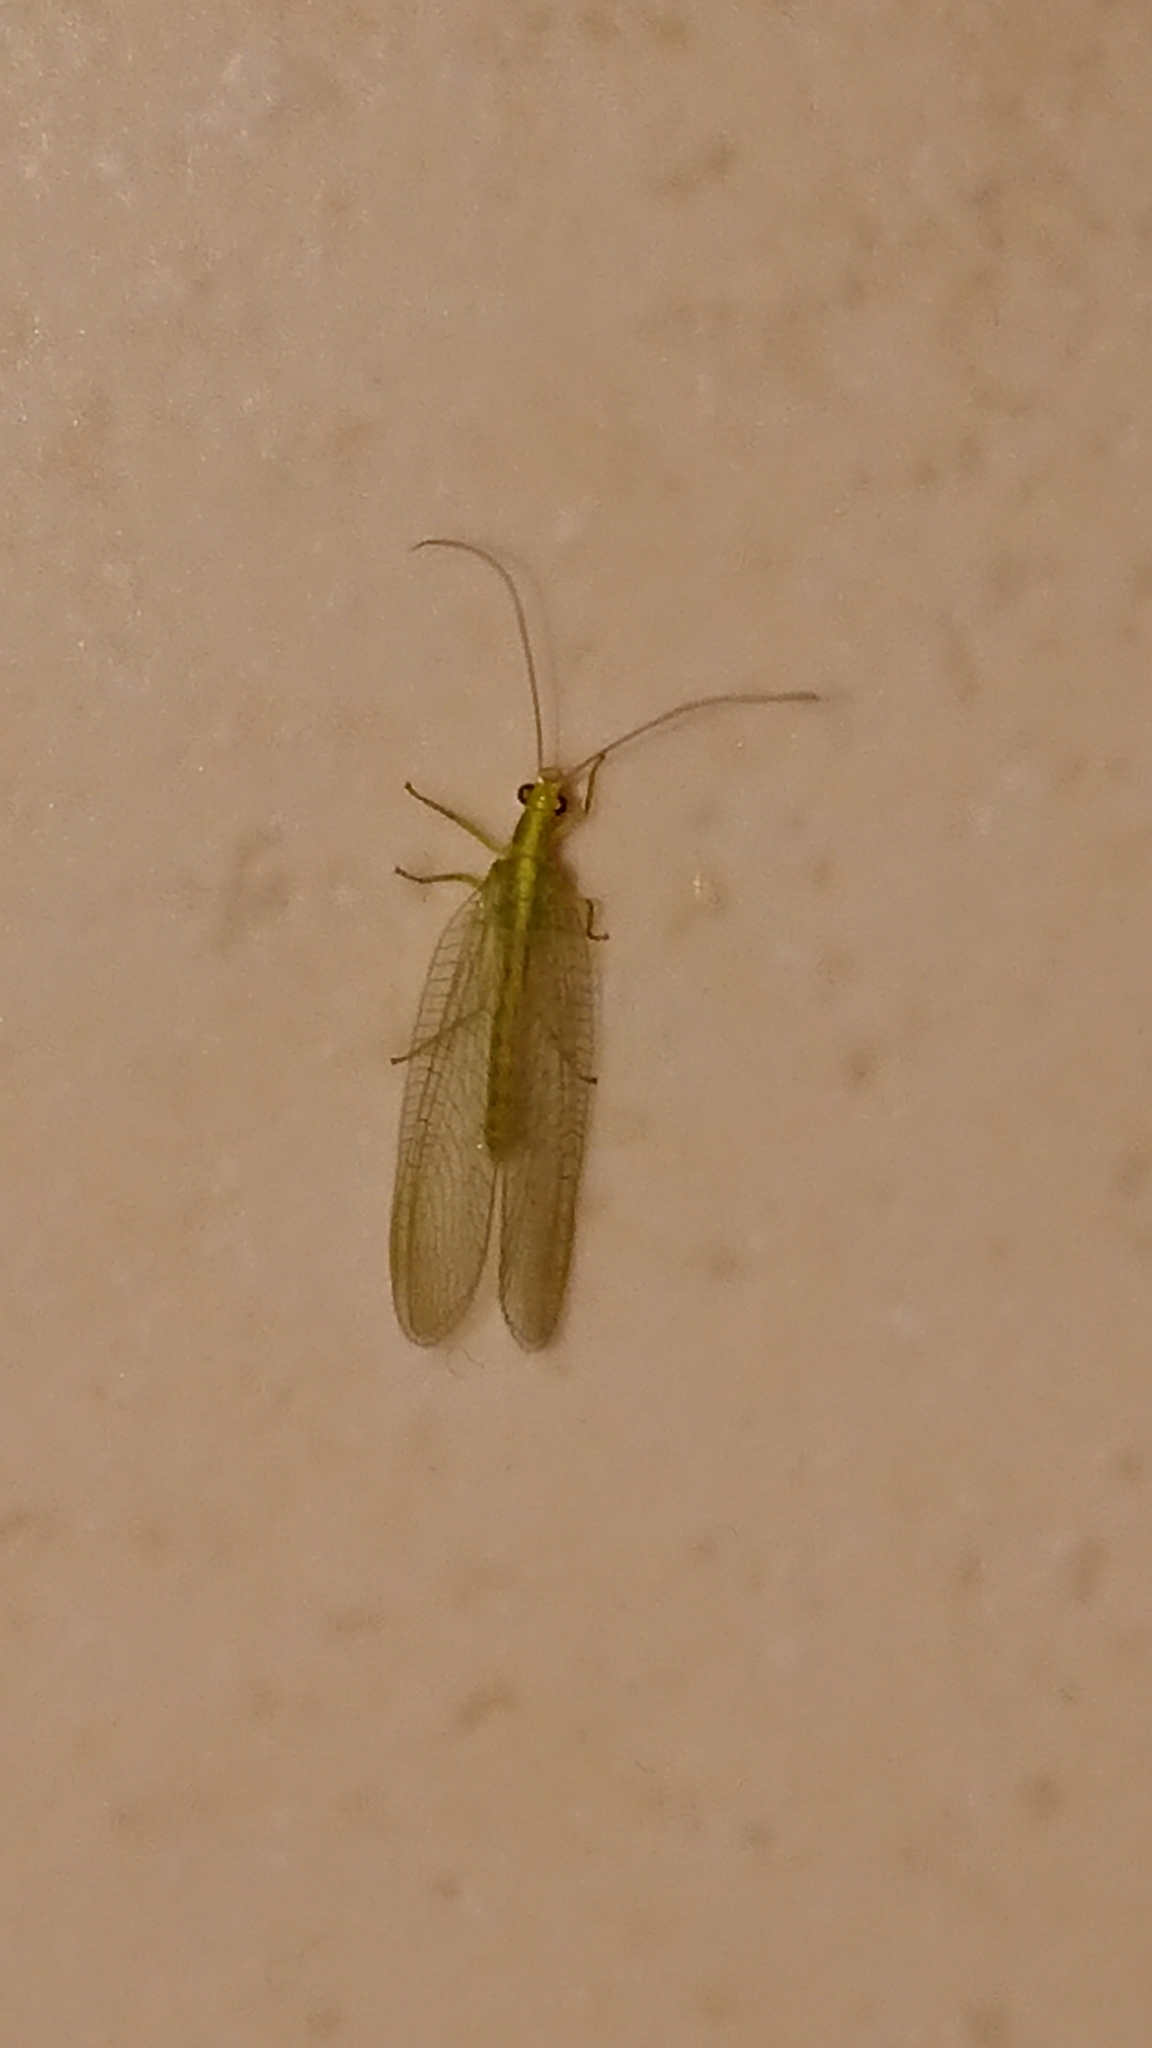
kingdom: Animalia
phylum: Arthropoda
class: Insecta
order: Neuroptera
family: Chrysopidae
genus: Chrysoperla
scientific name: Chrysoperla
